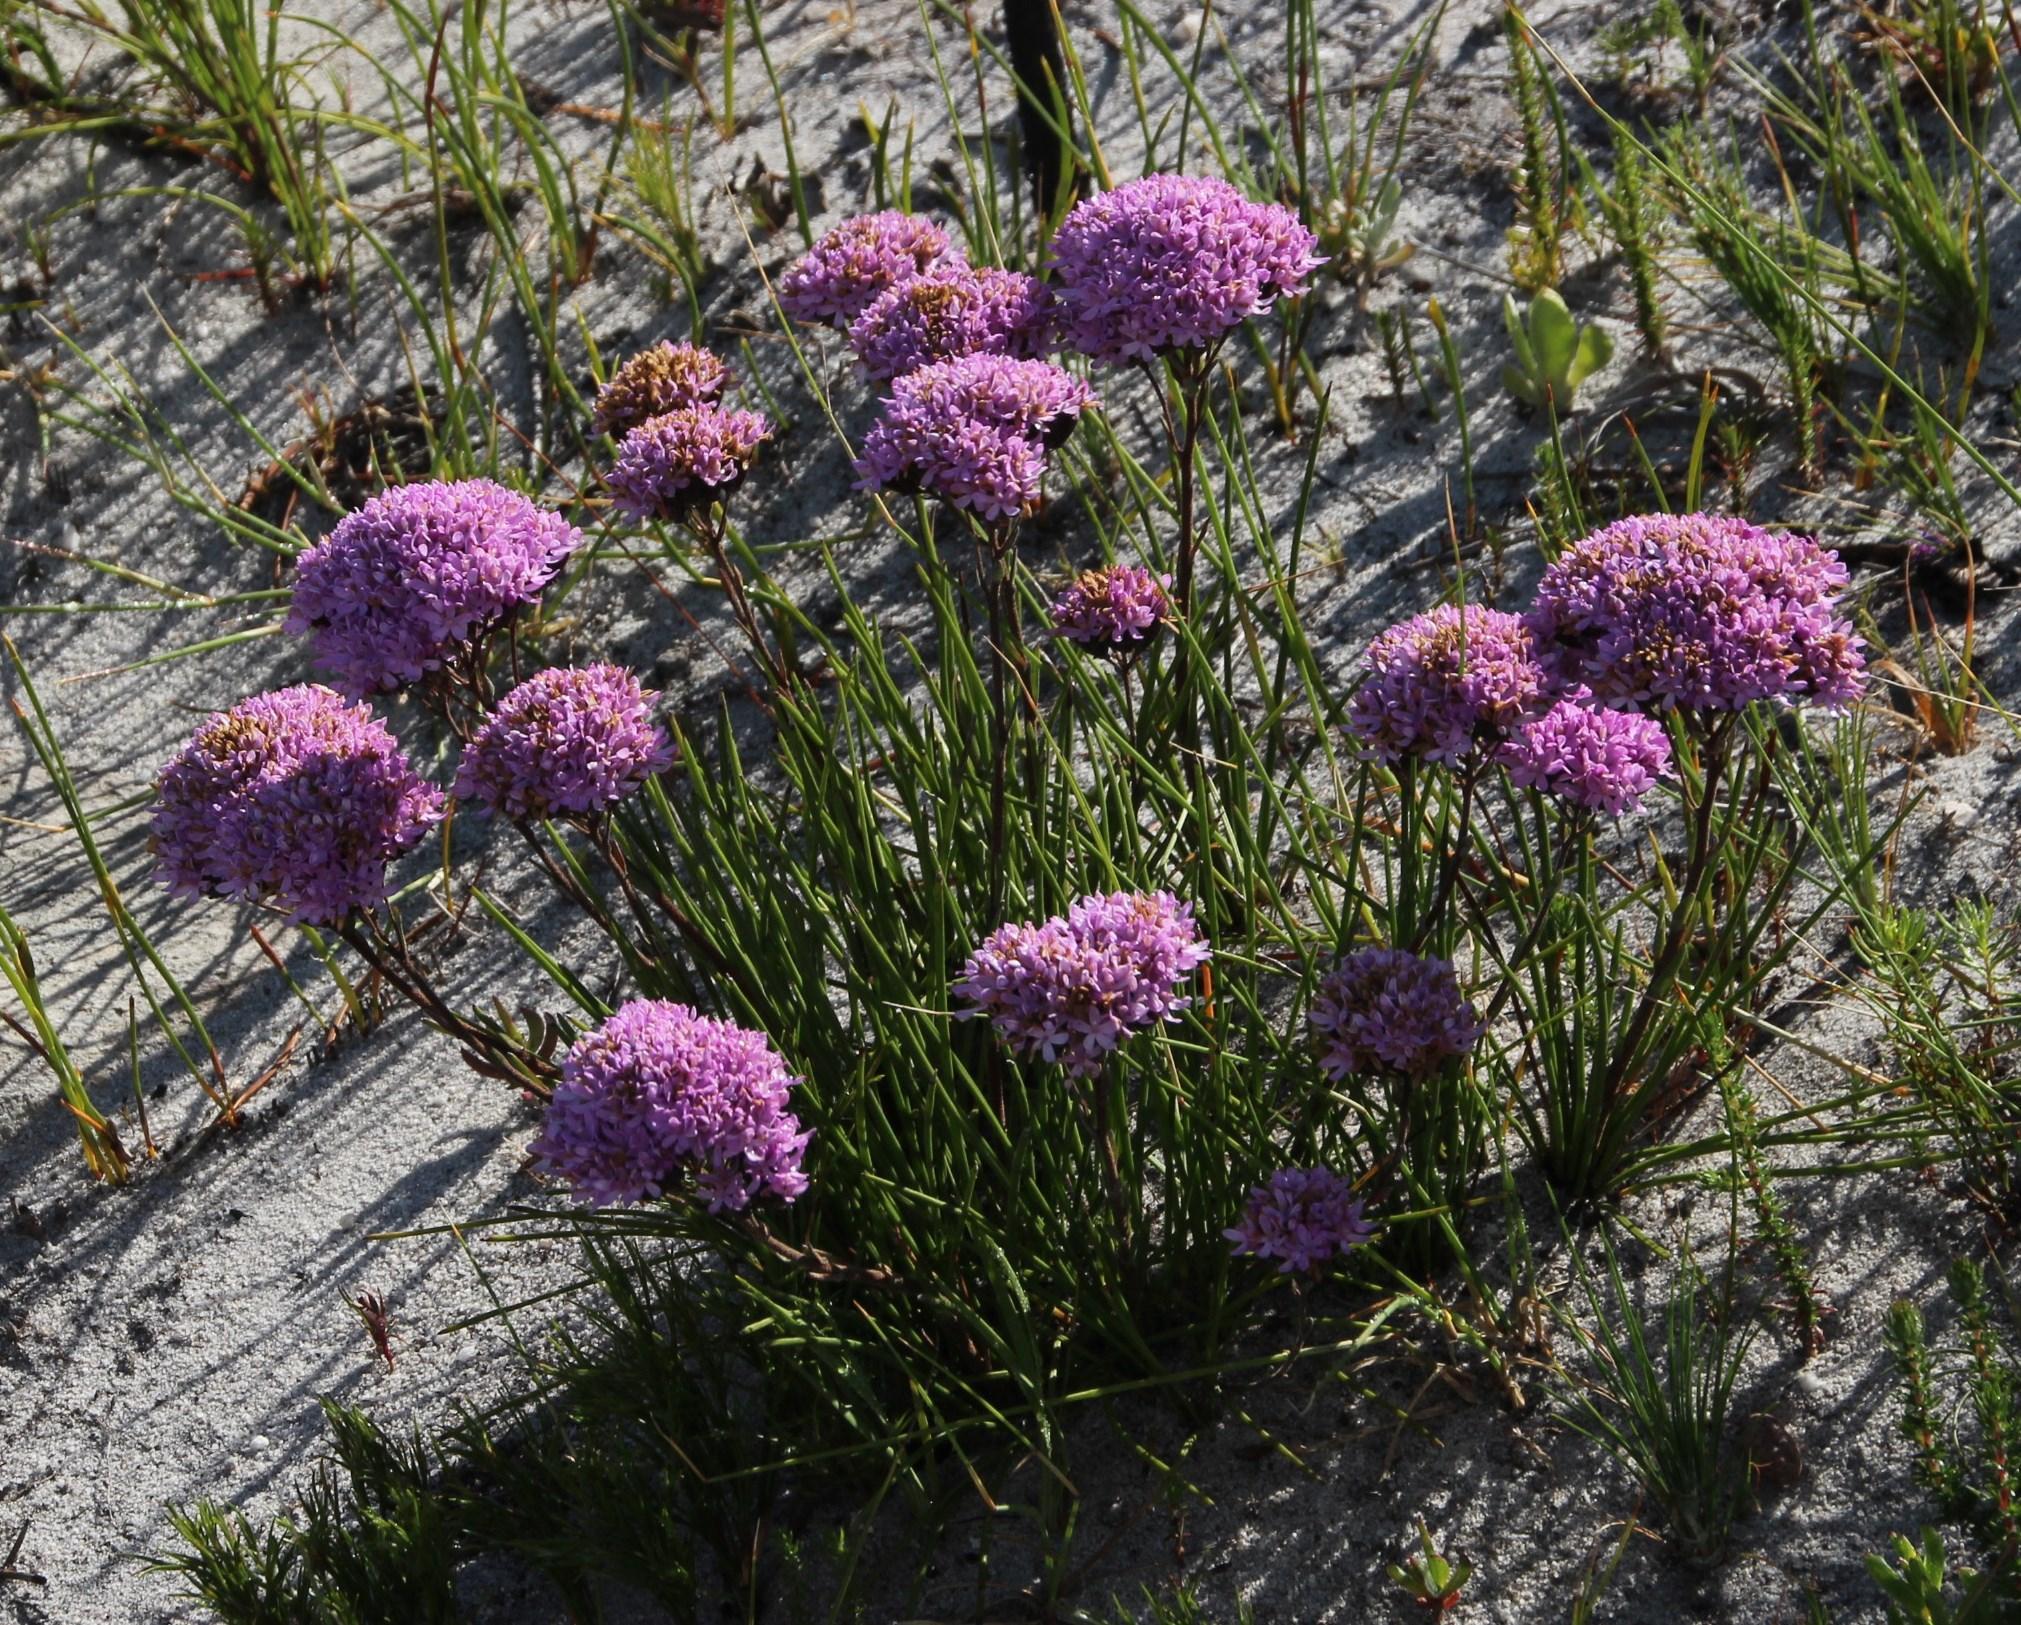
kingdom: Plantae
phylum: Tracheophyta
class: Magnoliopsida
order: Asterales
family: Asteraceae
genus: Corymbium
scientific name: Corymbium africanum
